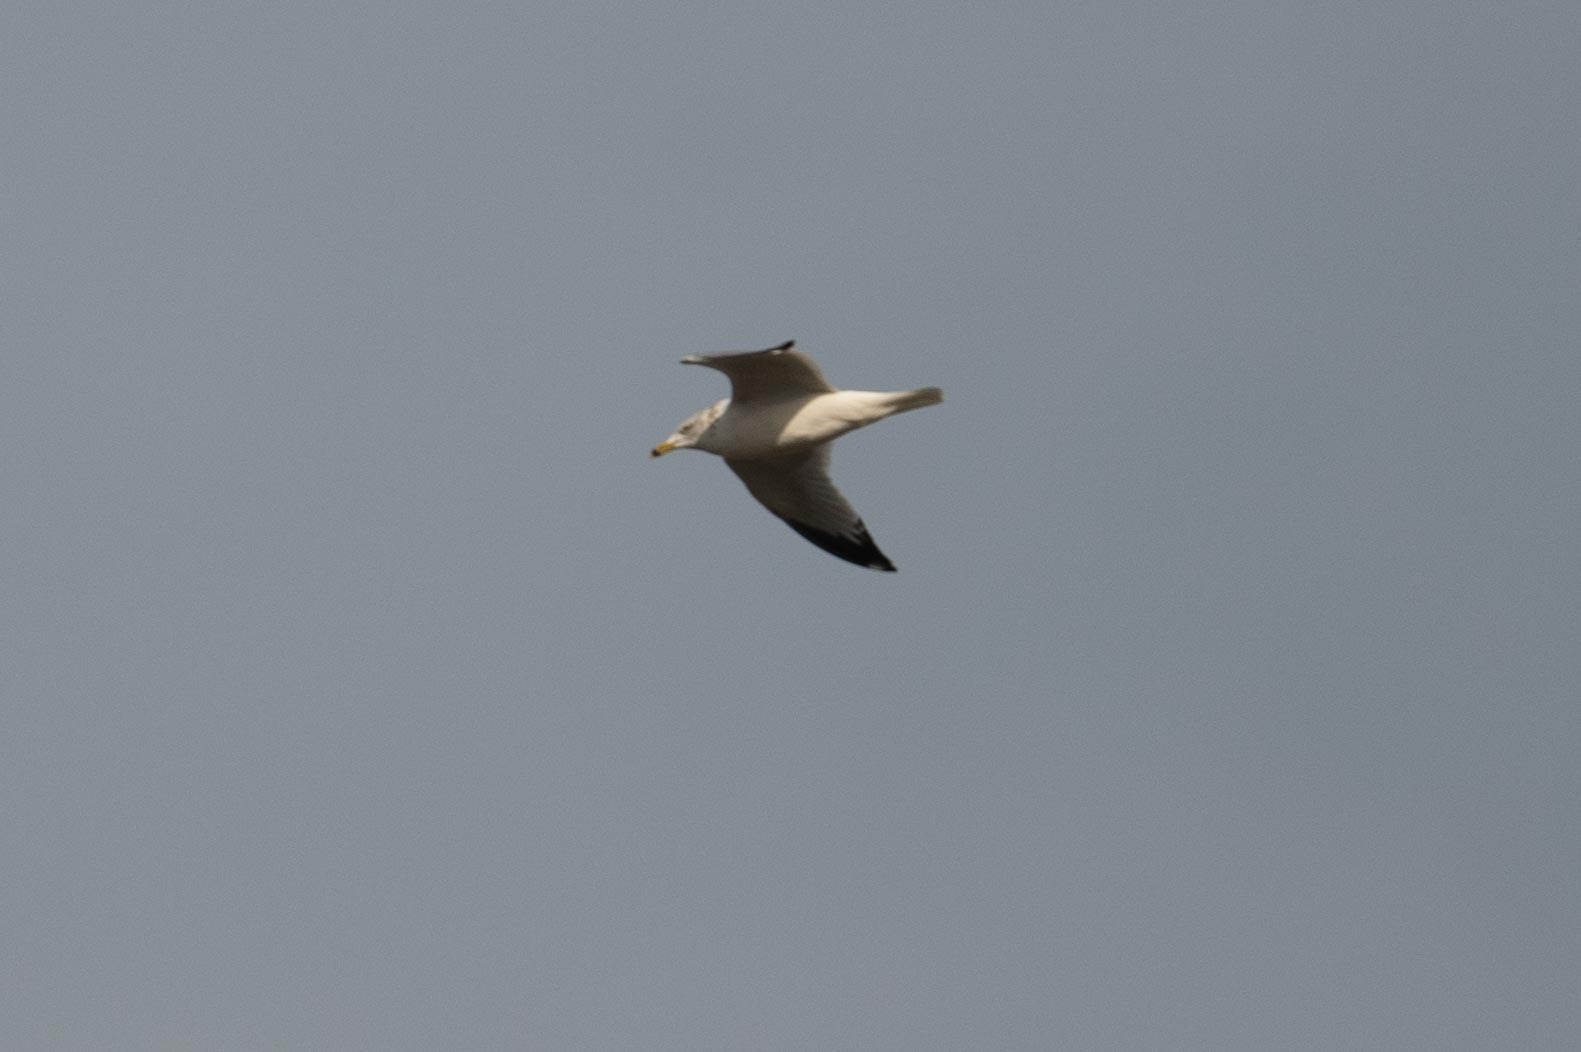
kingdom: Animalia
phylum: Chordata
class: Aves
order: Charadriiformes
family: Laridae
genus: Larus
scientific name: Larus delawarensis
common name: Ring-billed gull
